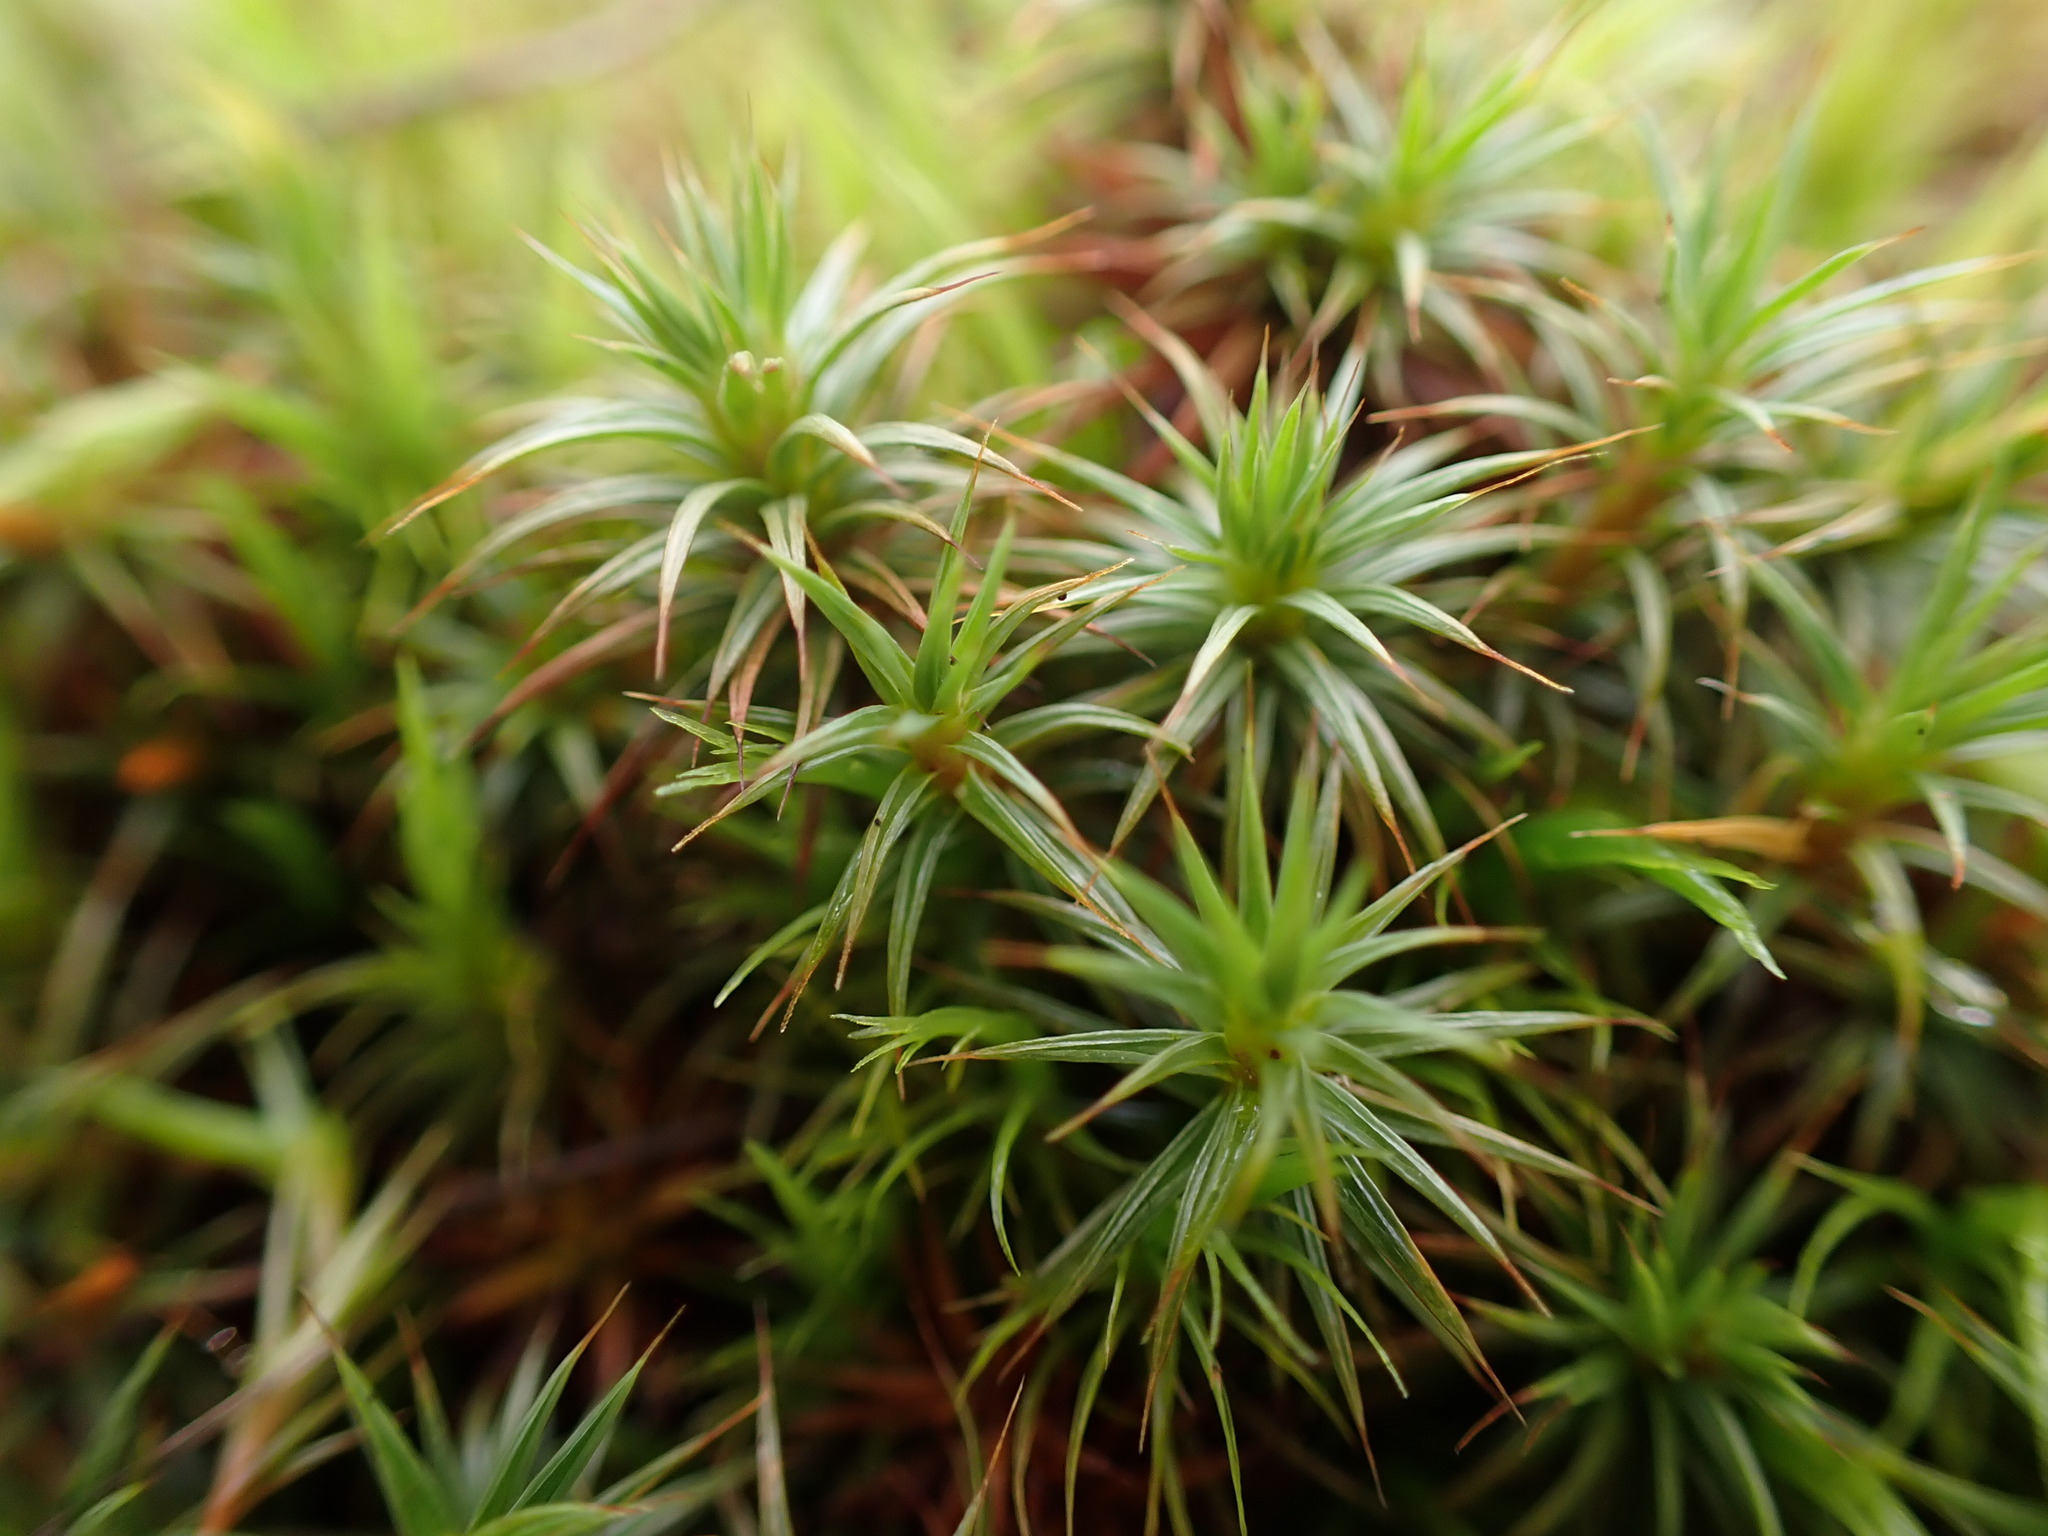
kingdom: Plantae
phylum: Bryophyta
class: Polytrichopsida
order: Polytrichales
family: Polytrichaceae
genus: Polytrichum
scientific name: Polytrichum juniperinum
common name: Juniper haircap moss
